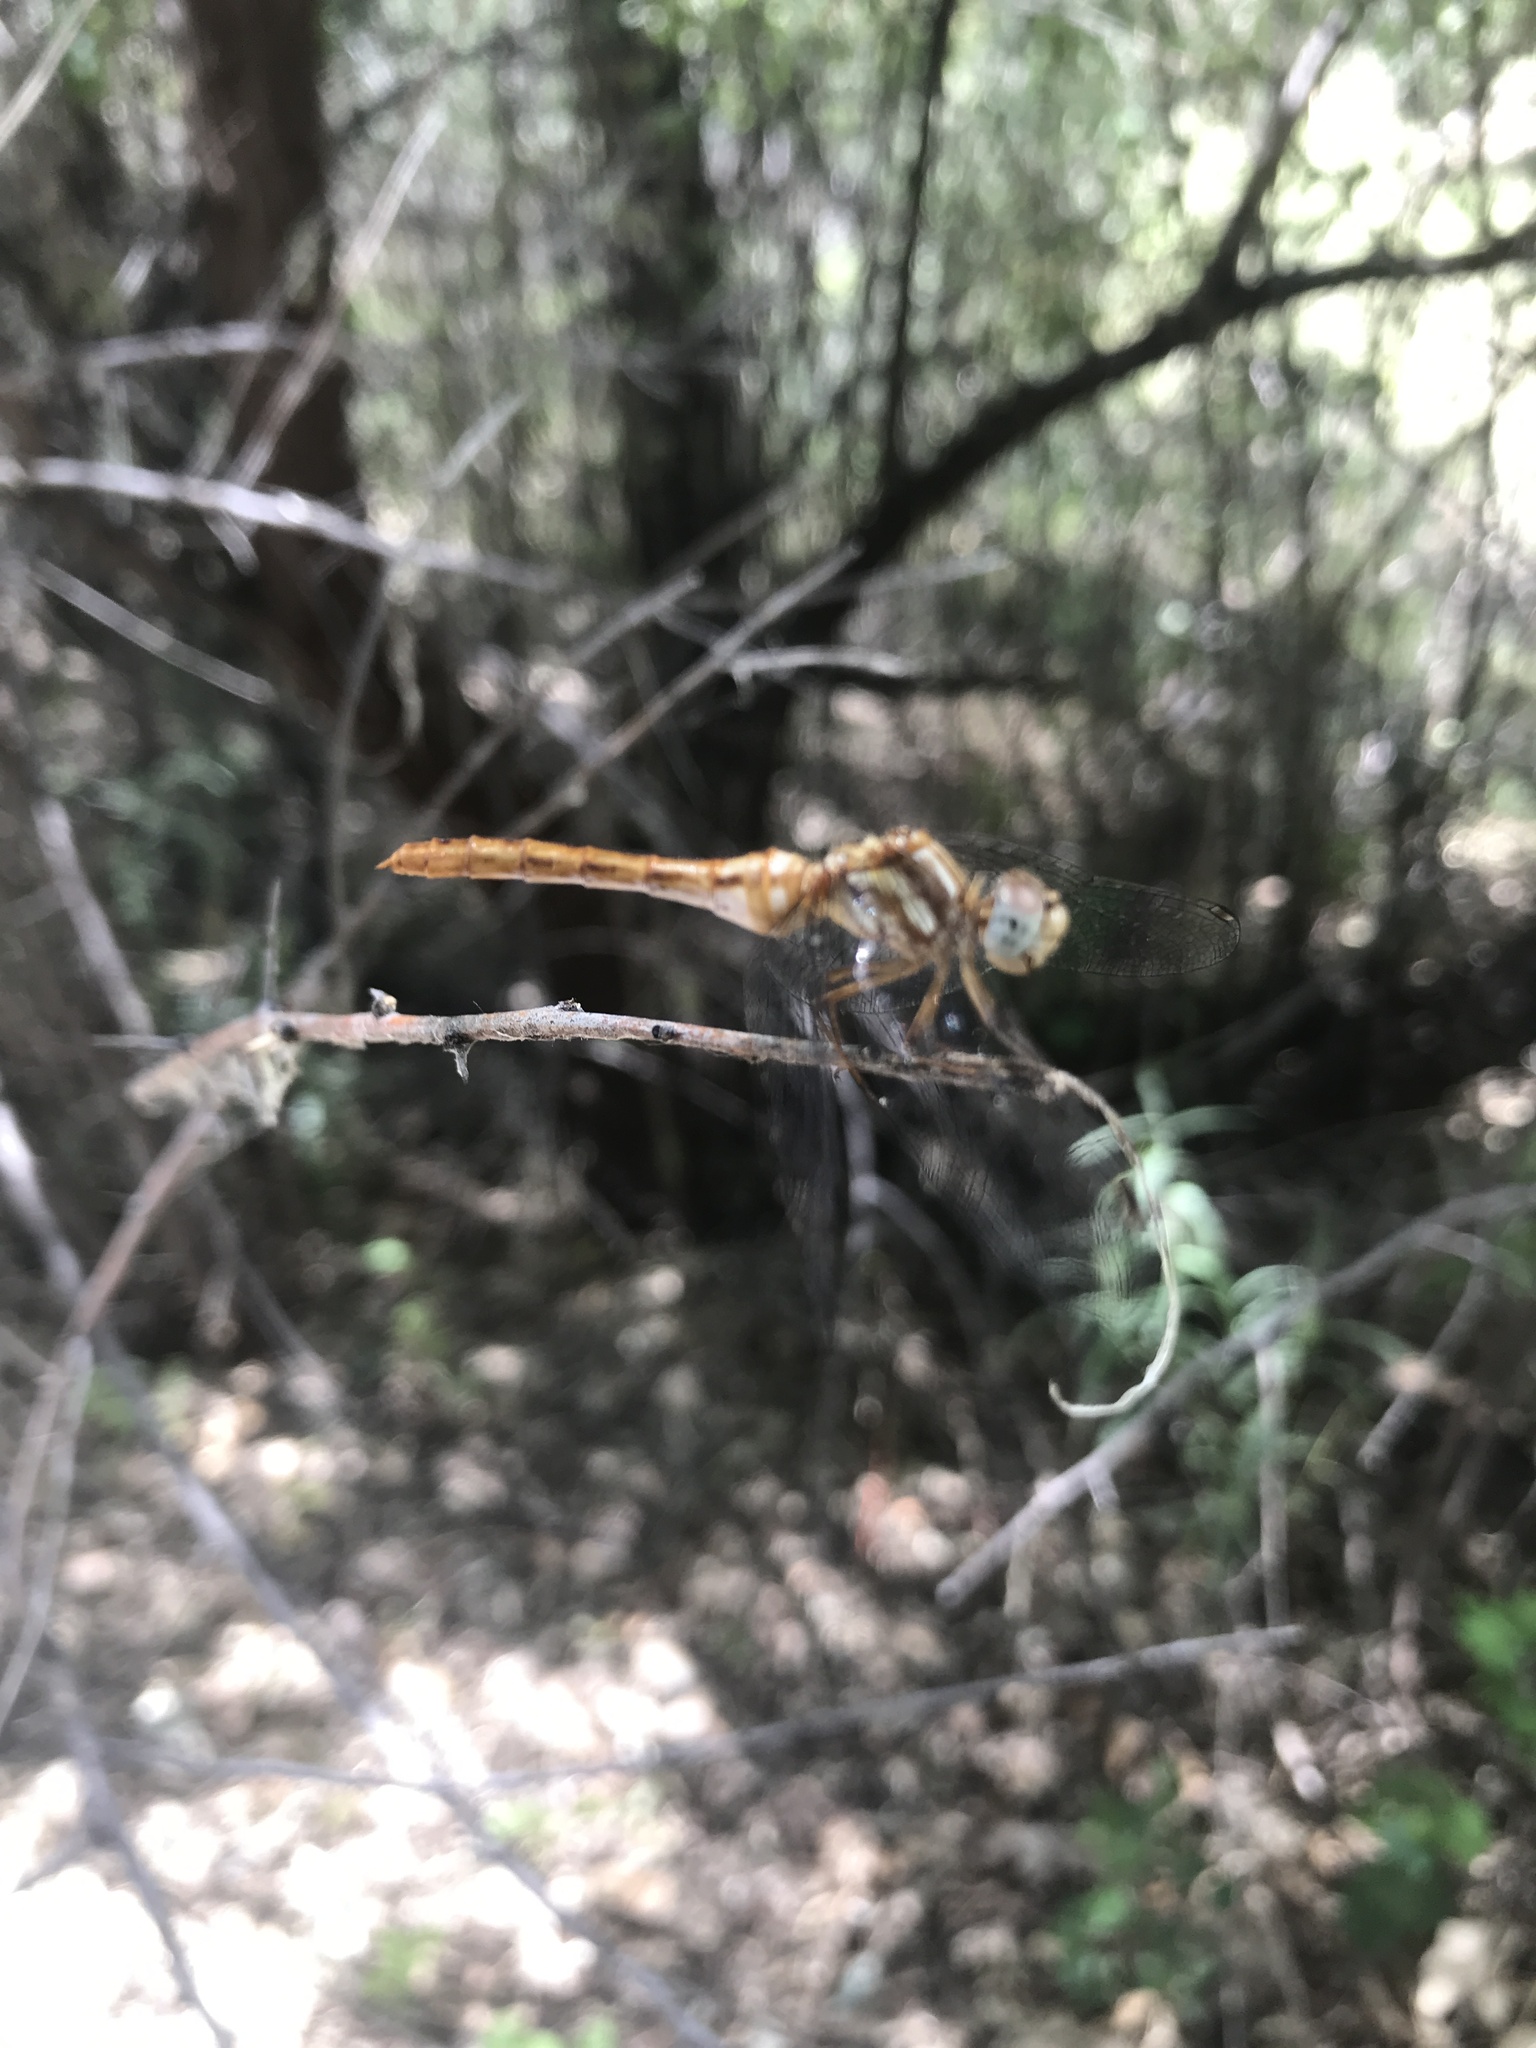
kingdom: Animalia
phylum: Arthropoda
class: Insecta
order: Odonata
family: Libellulidae
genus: Sympetrum
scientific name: Sympetrum pallipes
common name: Striped meadowhawk
